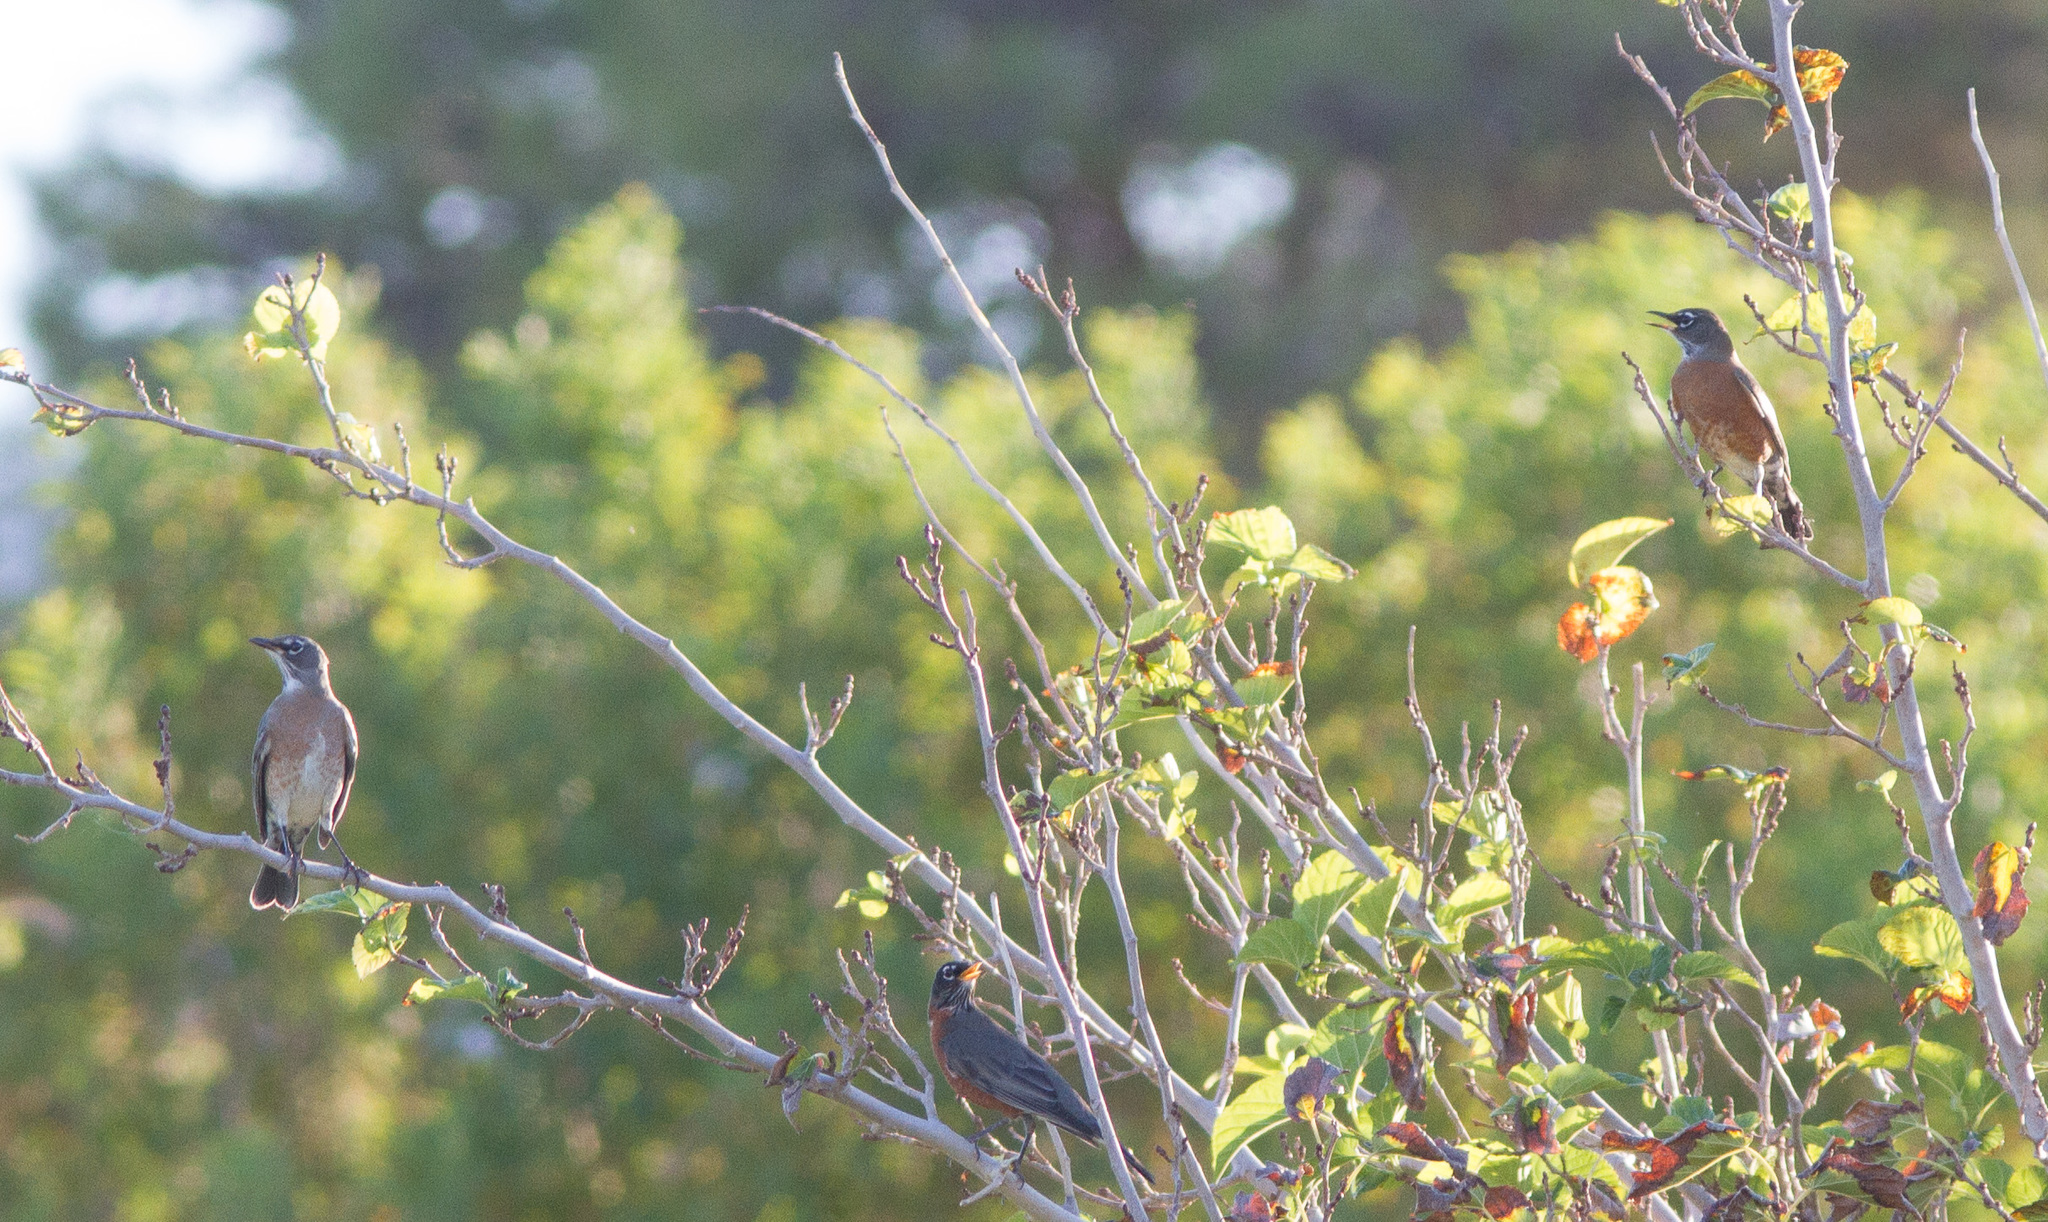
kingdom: Animalia
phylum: Chordata
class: Aves
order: Passeriformes
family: Turdidae
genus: Turdus
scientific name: Turdus migratorius
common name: American robin
